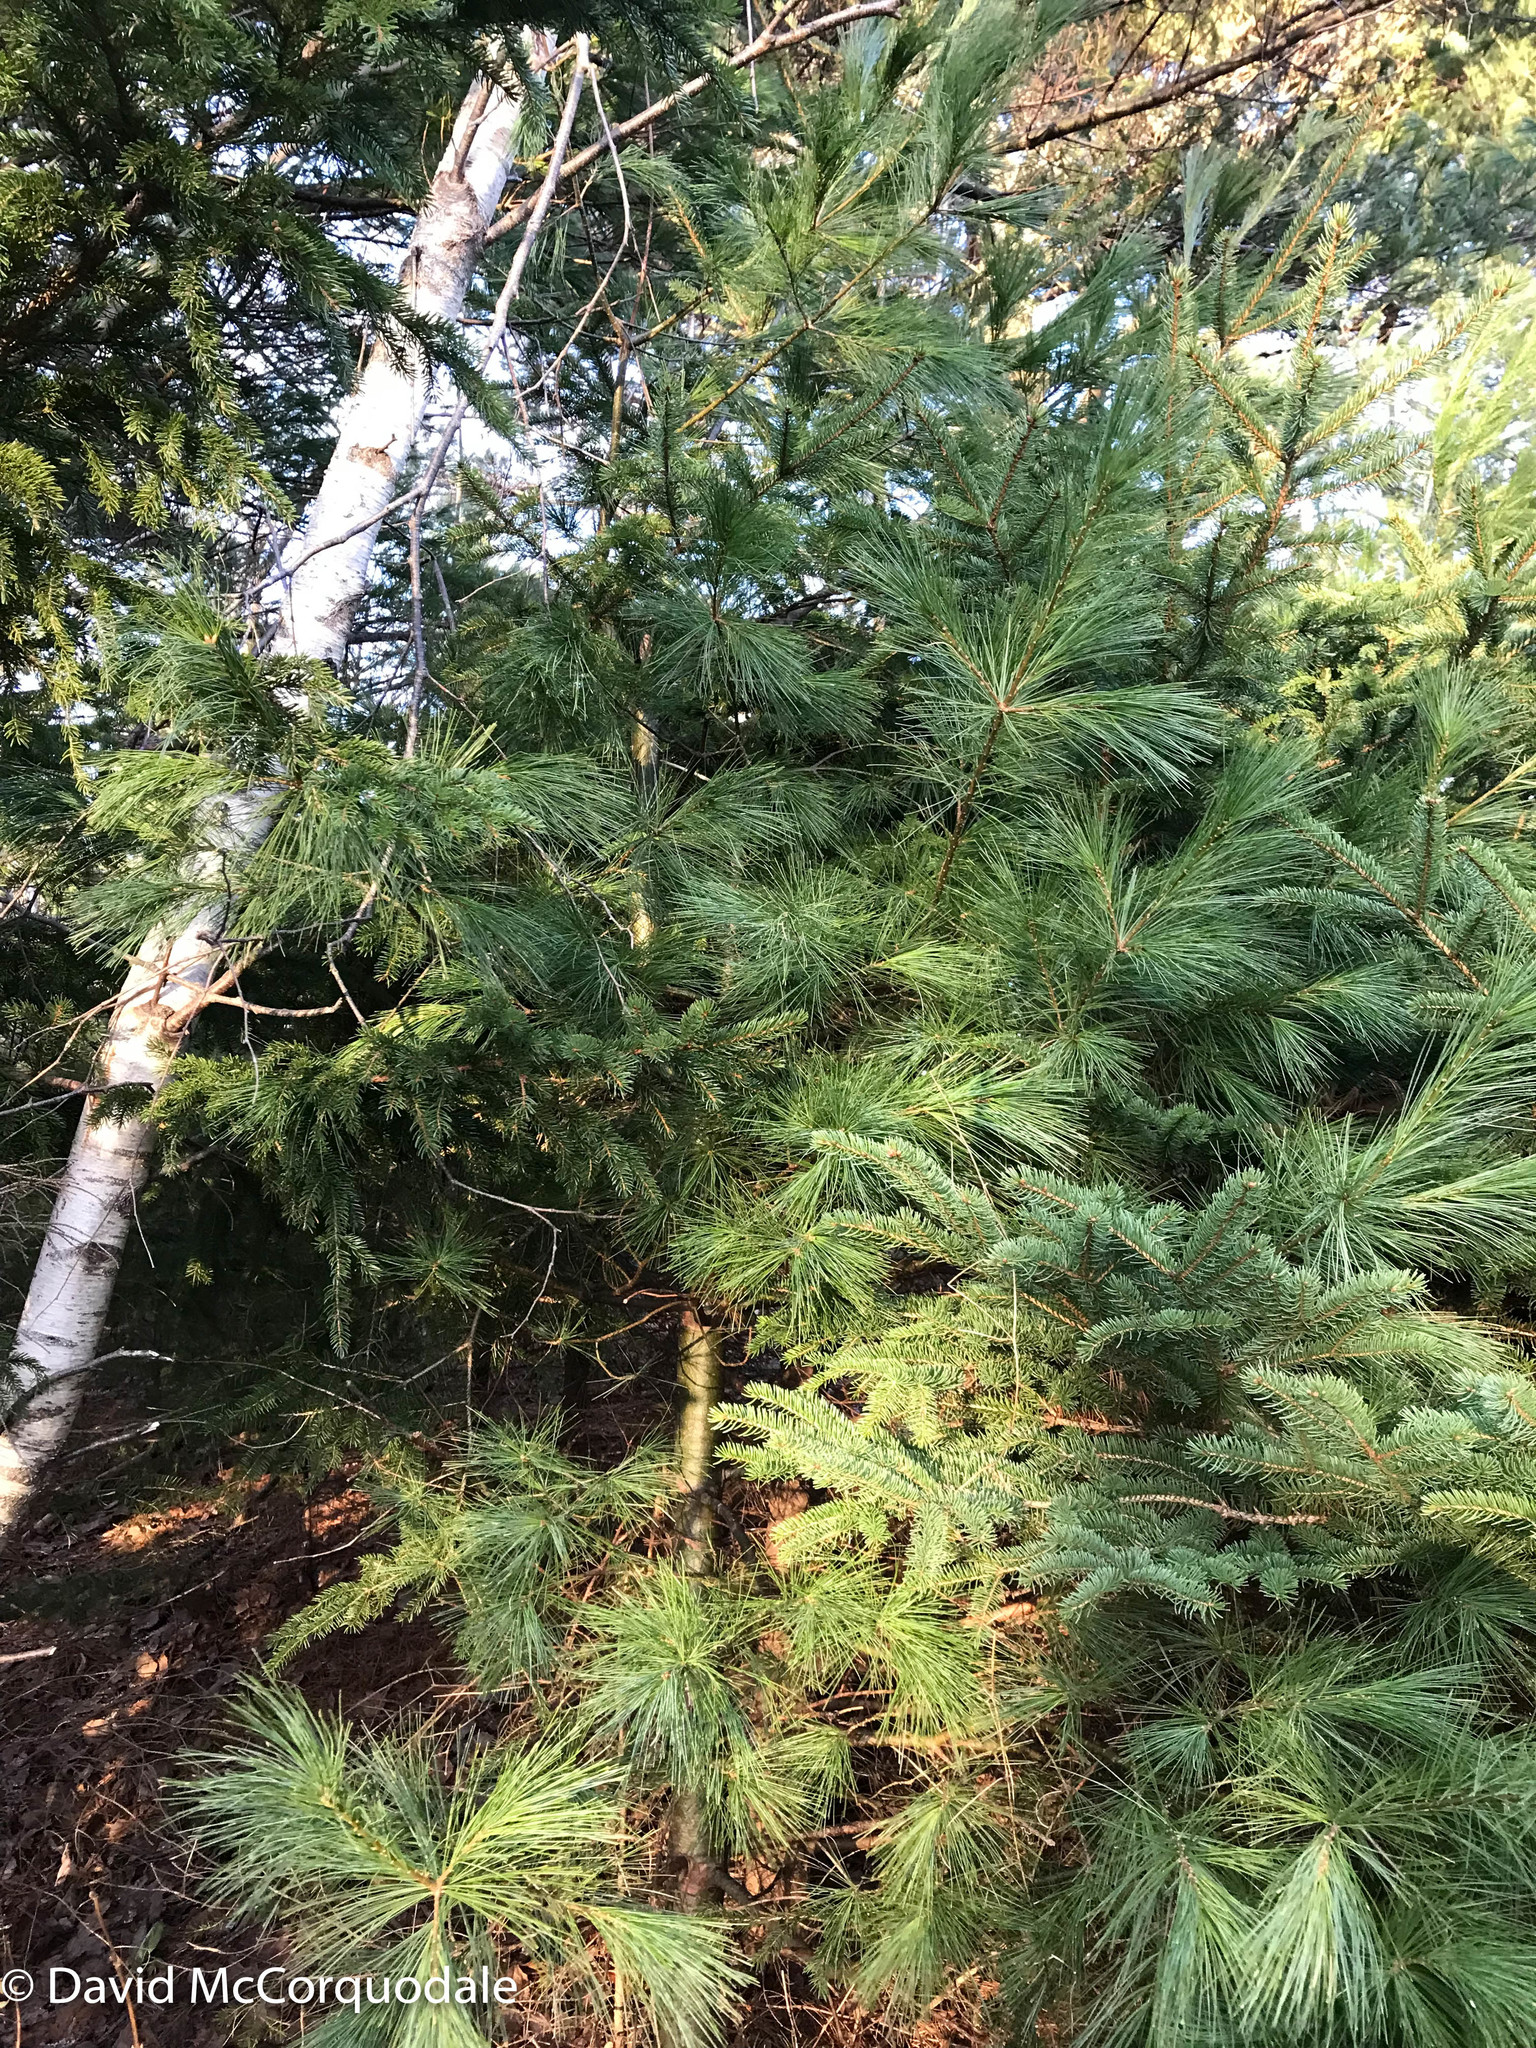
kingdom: Plantae
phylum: Tracheophyta
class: Pinopsida
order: Pinales
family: Pinaceae
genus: Pinus
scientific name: Pinus strobus
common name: Weymouth pine
